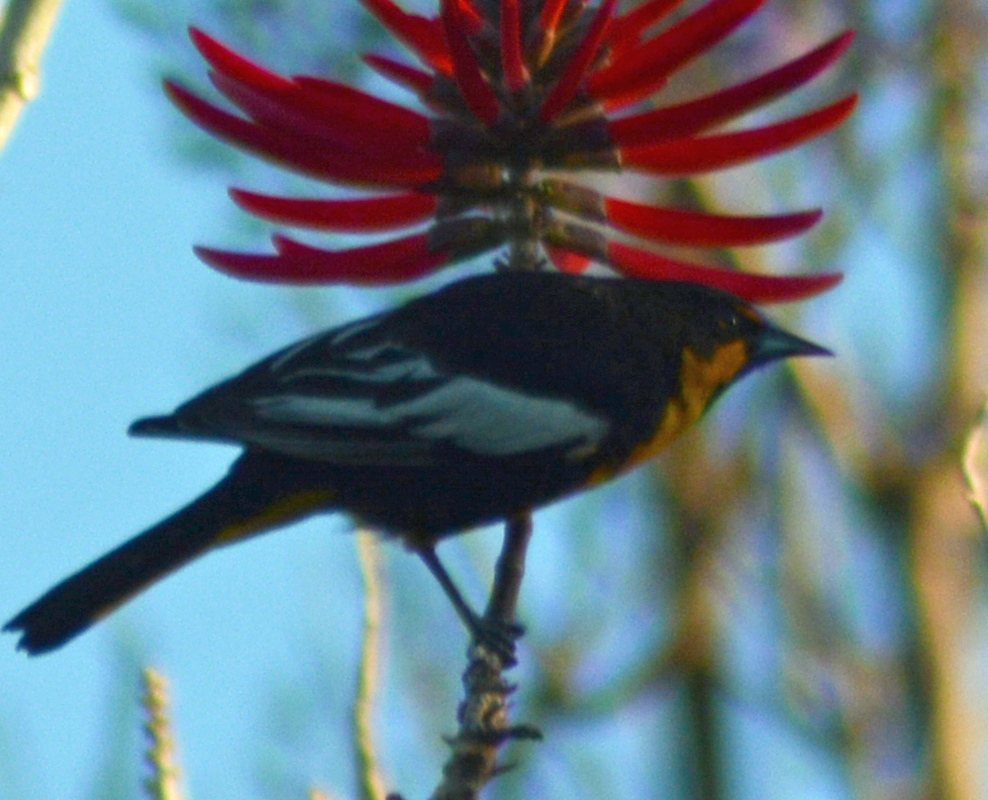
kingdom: Animalia
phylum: Chordata
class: Aves
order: Passeriformes
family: Icteridae
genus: Icterus
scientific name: Icterus abeillei
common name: Black-backed oriole
